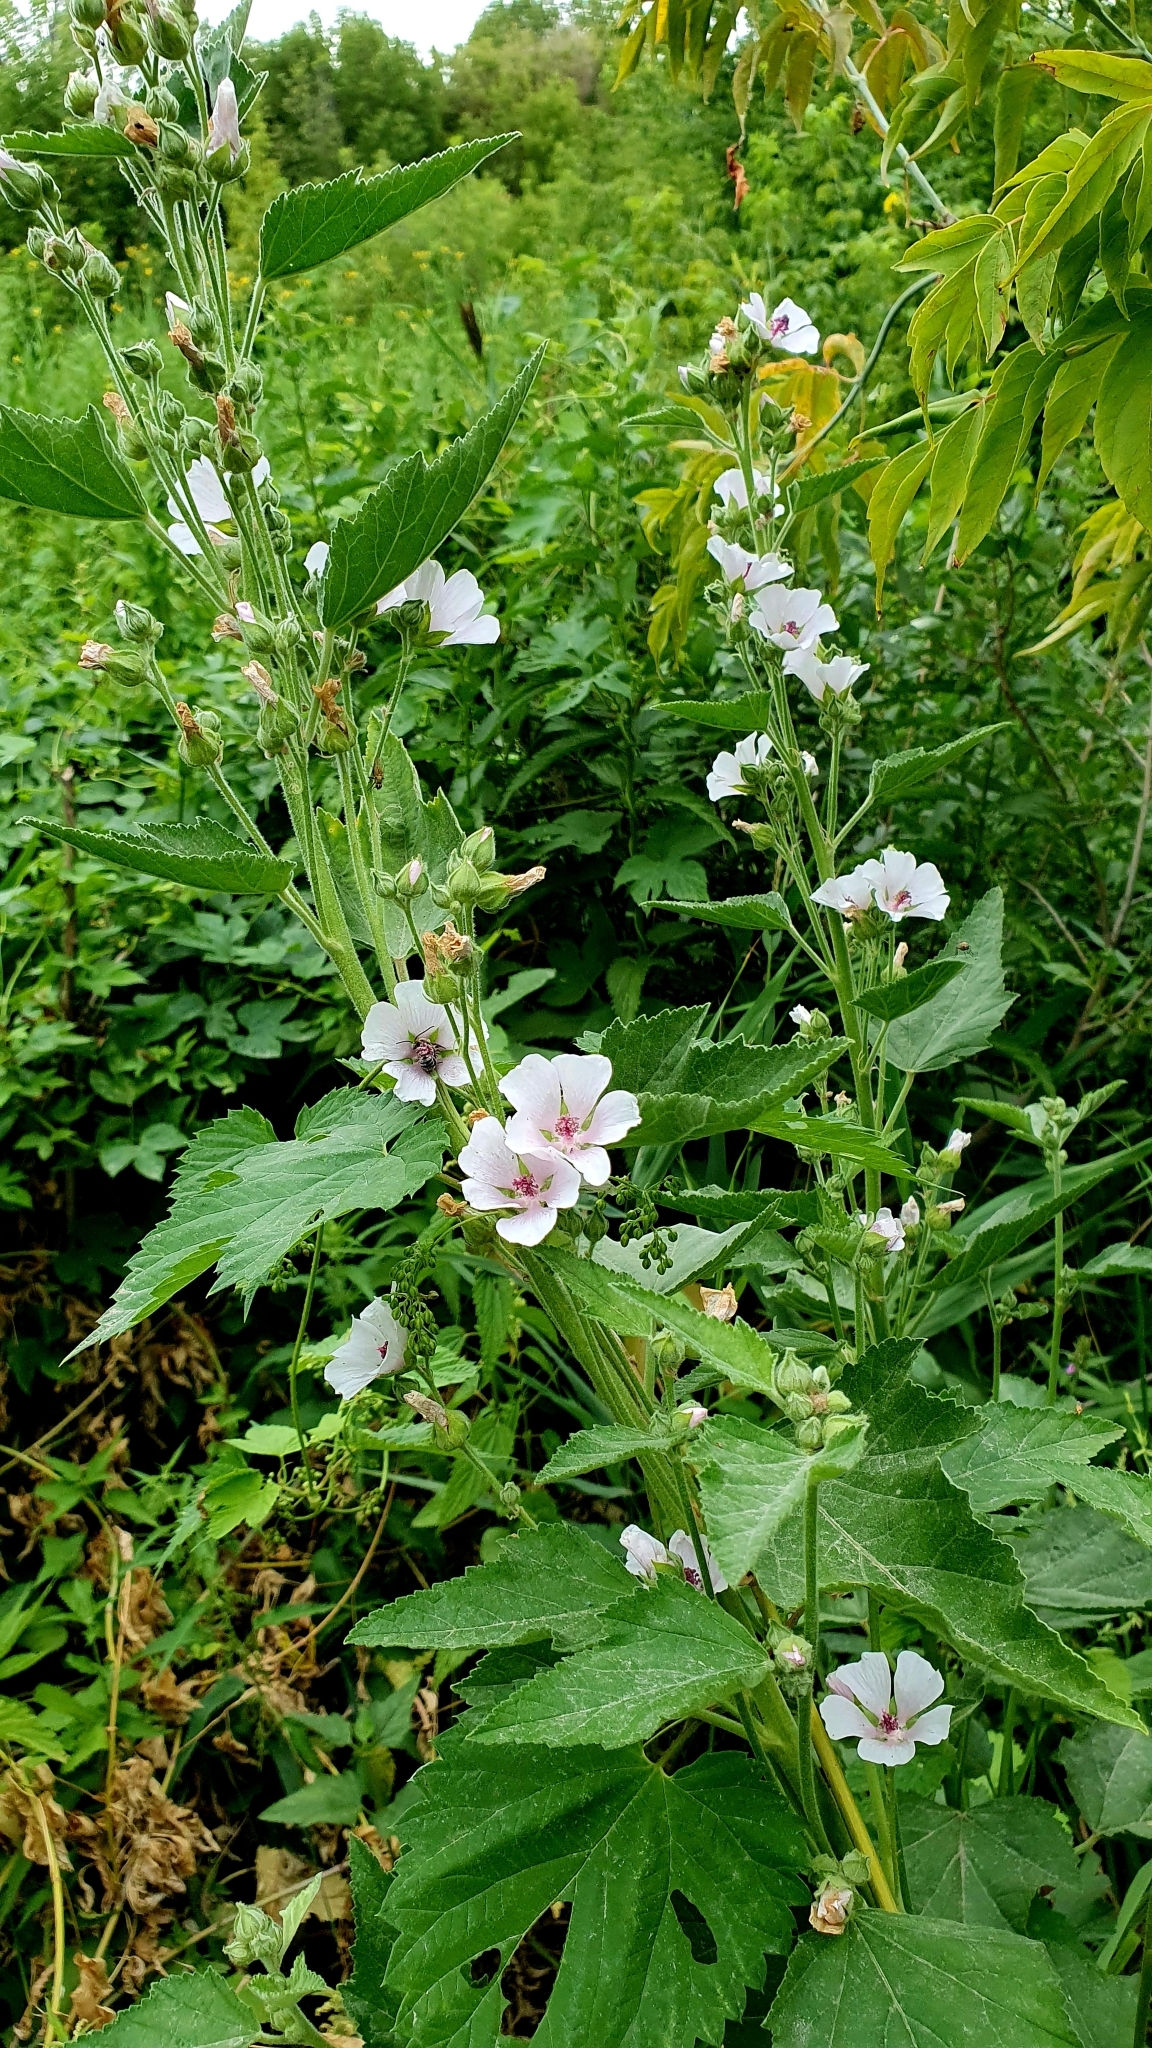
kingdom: Plantae
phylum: Tracheophyta
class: Magnoliopsida
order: Malvales
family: Malvaceae
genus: Althaea
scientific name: Althaea officinalis
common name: Marsh-mallow
